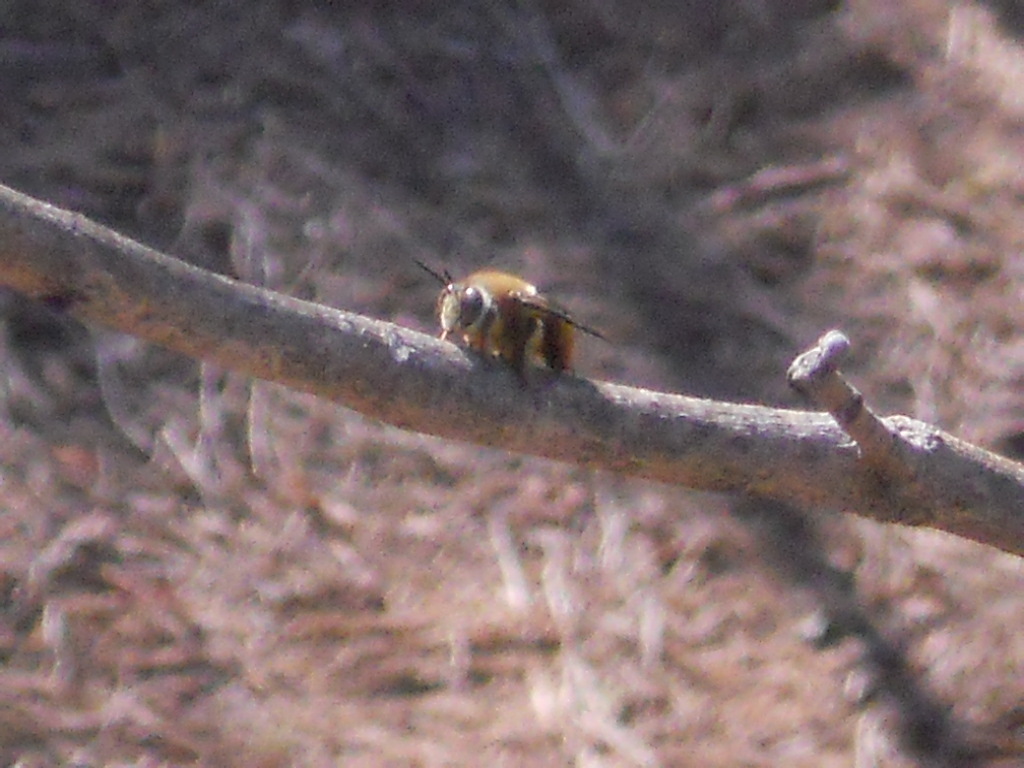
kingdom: Animalia
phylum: Arthropoda
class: Insecta
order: Hymenoptera
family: Apidae
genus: Centris
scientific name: Centris
